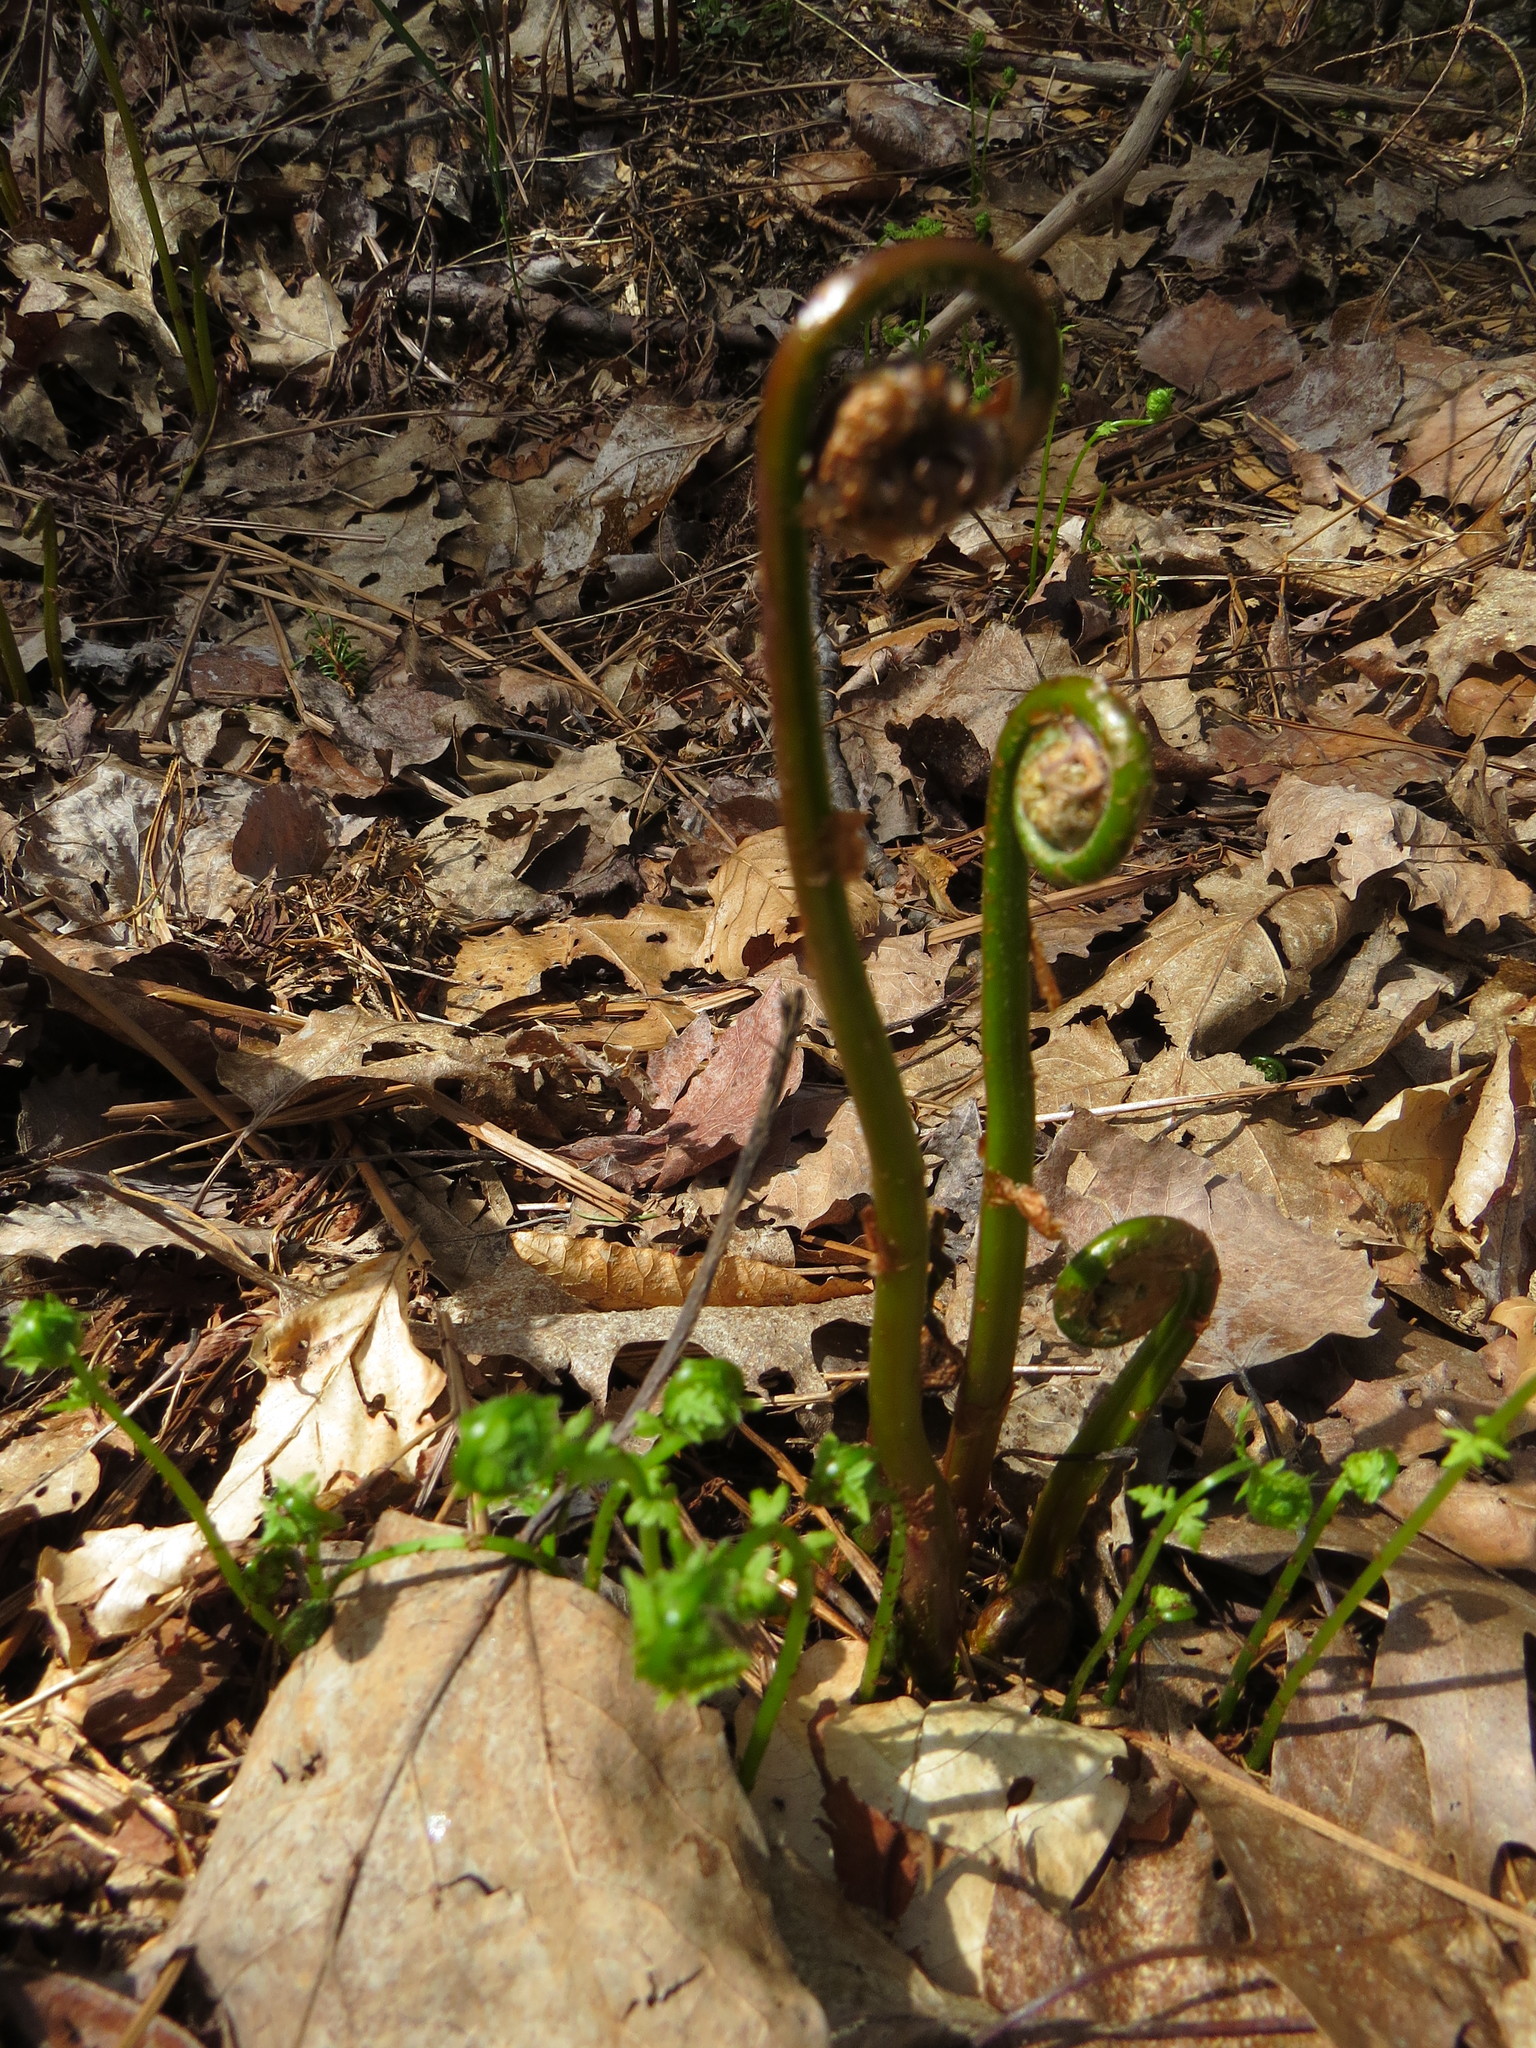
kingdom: Plantae
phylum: Tracheophyta
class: Polypodiopsida
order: Polypodiales
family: Onocleaceae
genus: Matteuccia
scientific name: Matteuccia struthiopteris
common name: Ostrich fern
